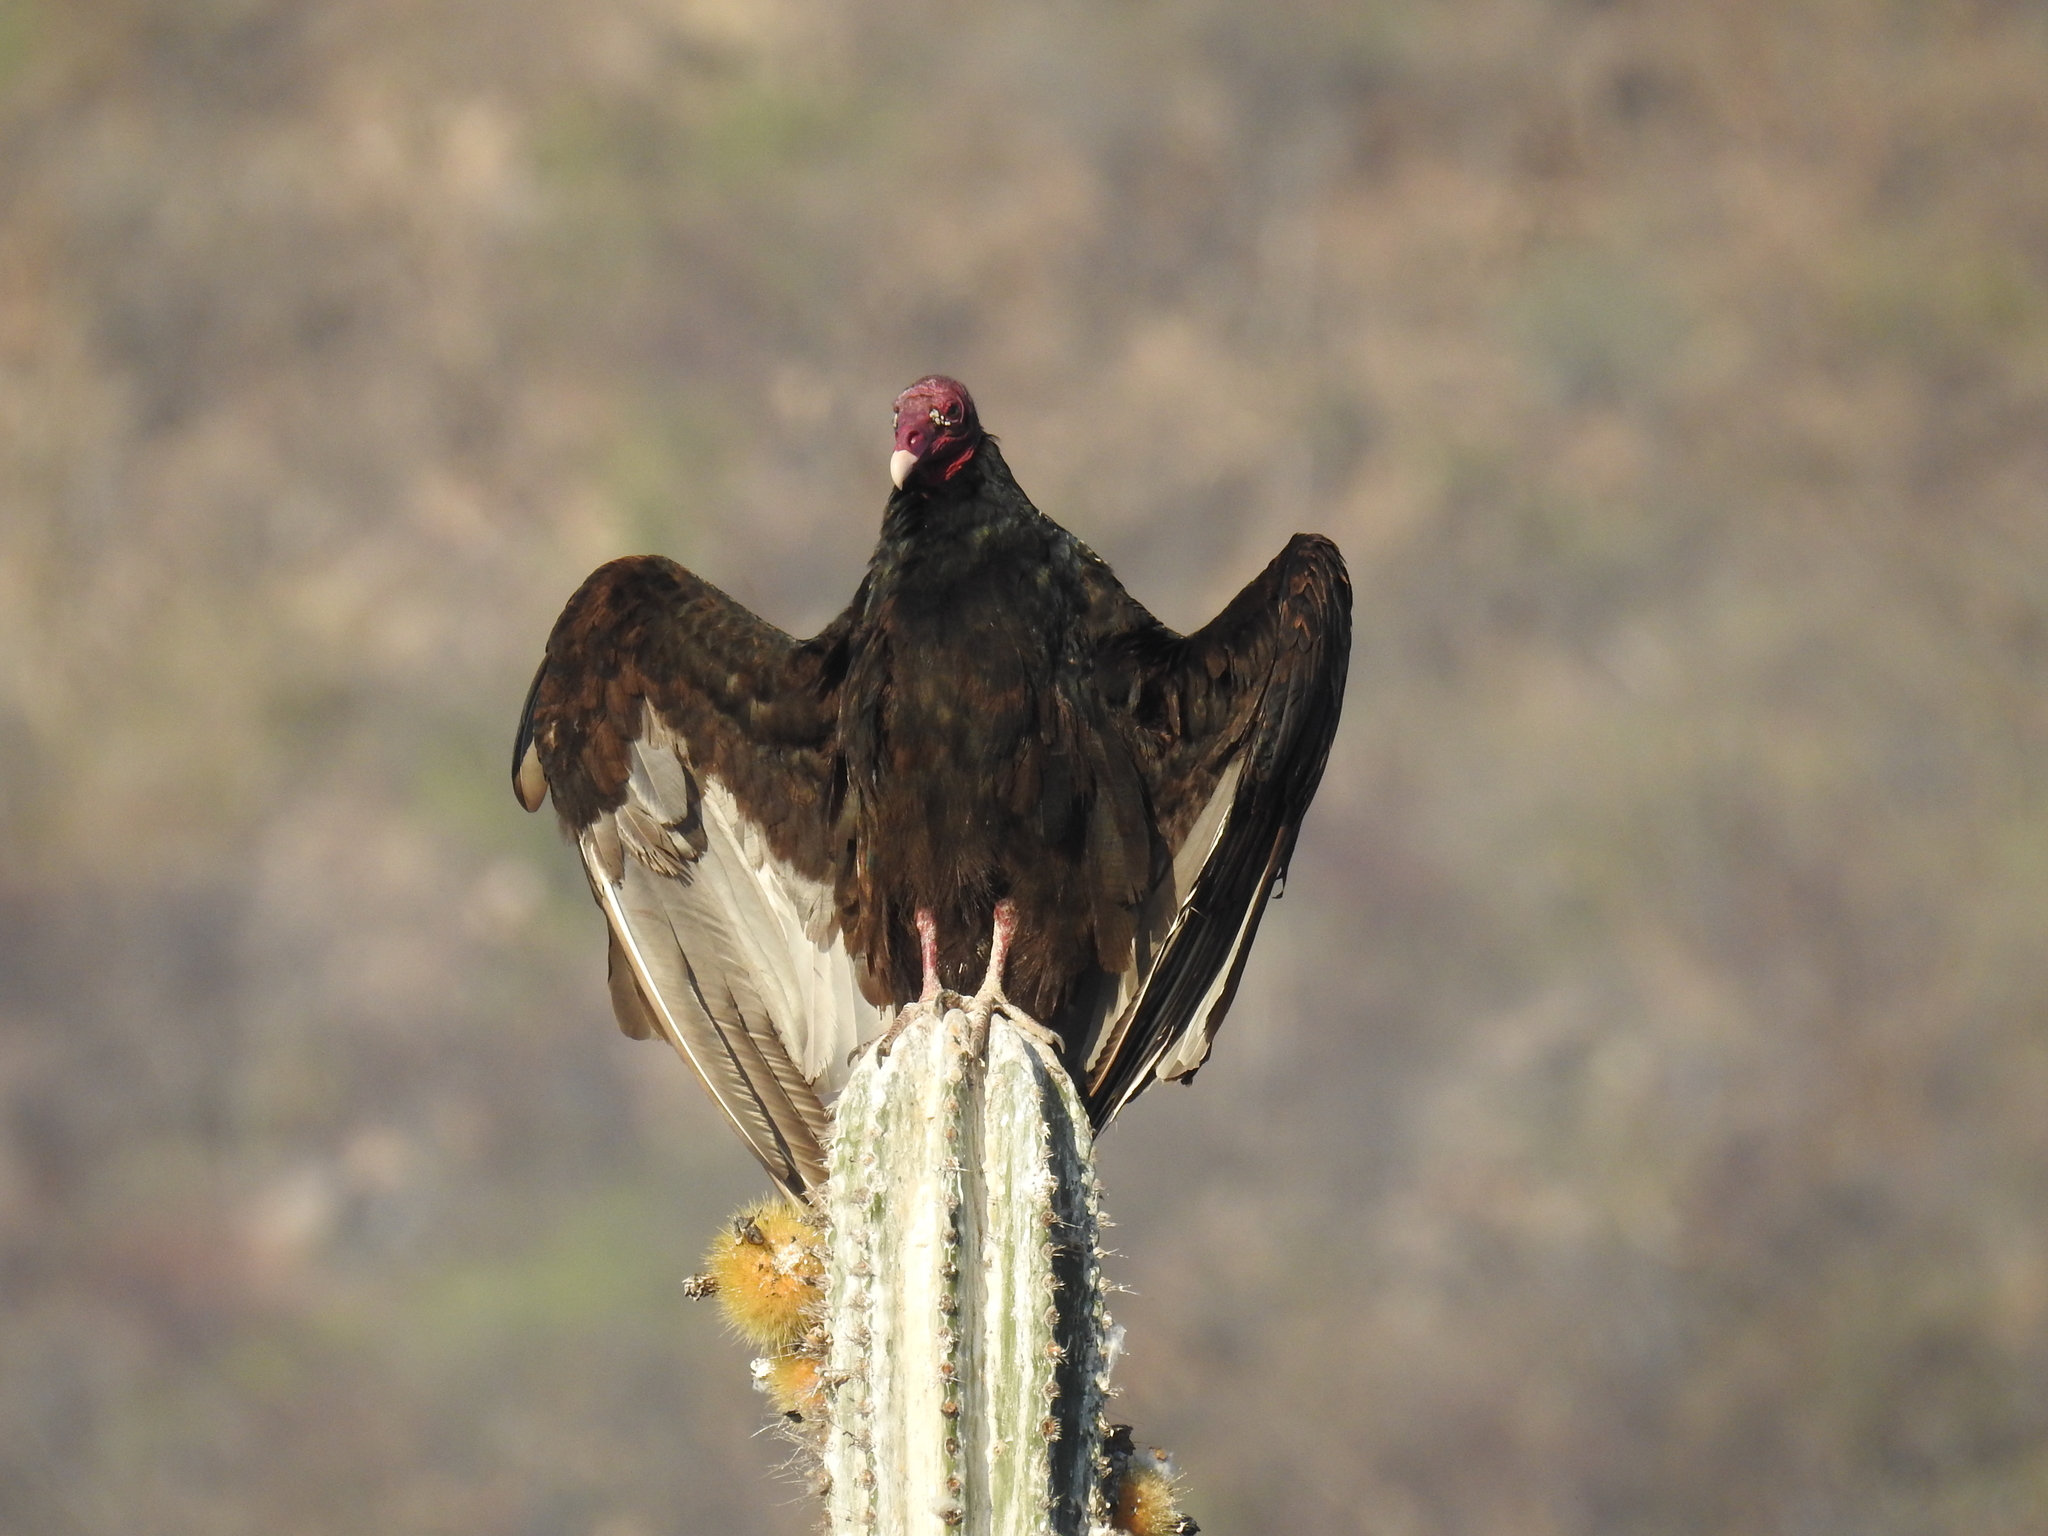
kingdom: Animalia
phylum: Chordata
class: Aves
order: Accipitriformes
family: Cathartidae
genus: Cathartes
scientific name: Cathartes aura
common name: Turkey vulture
